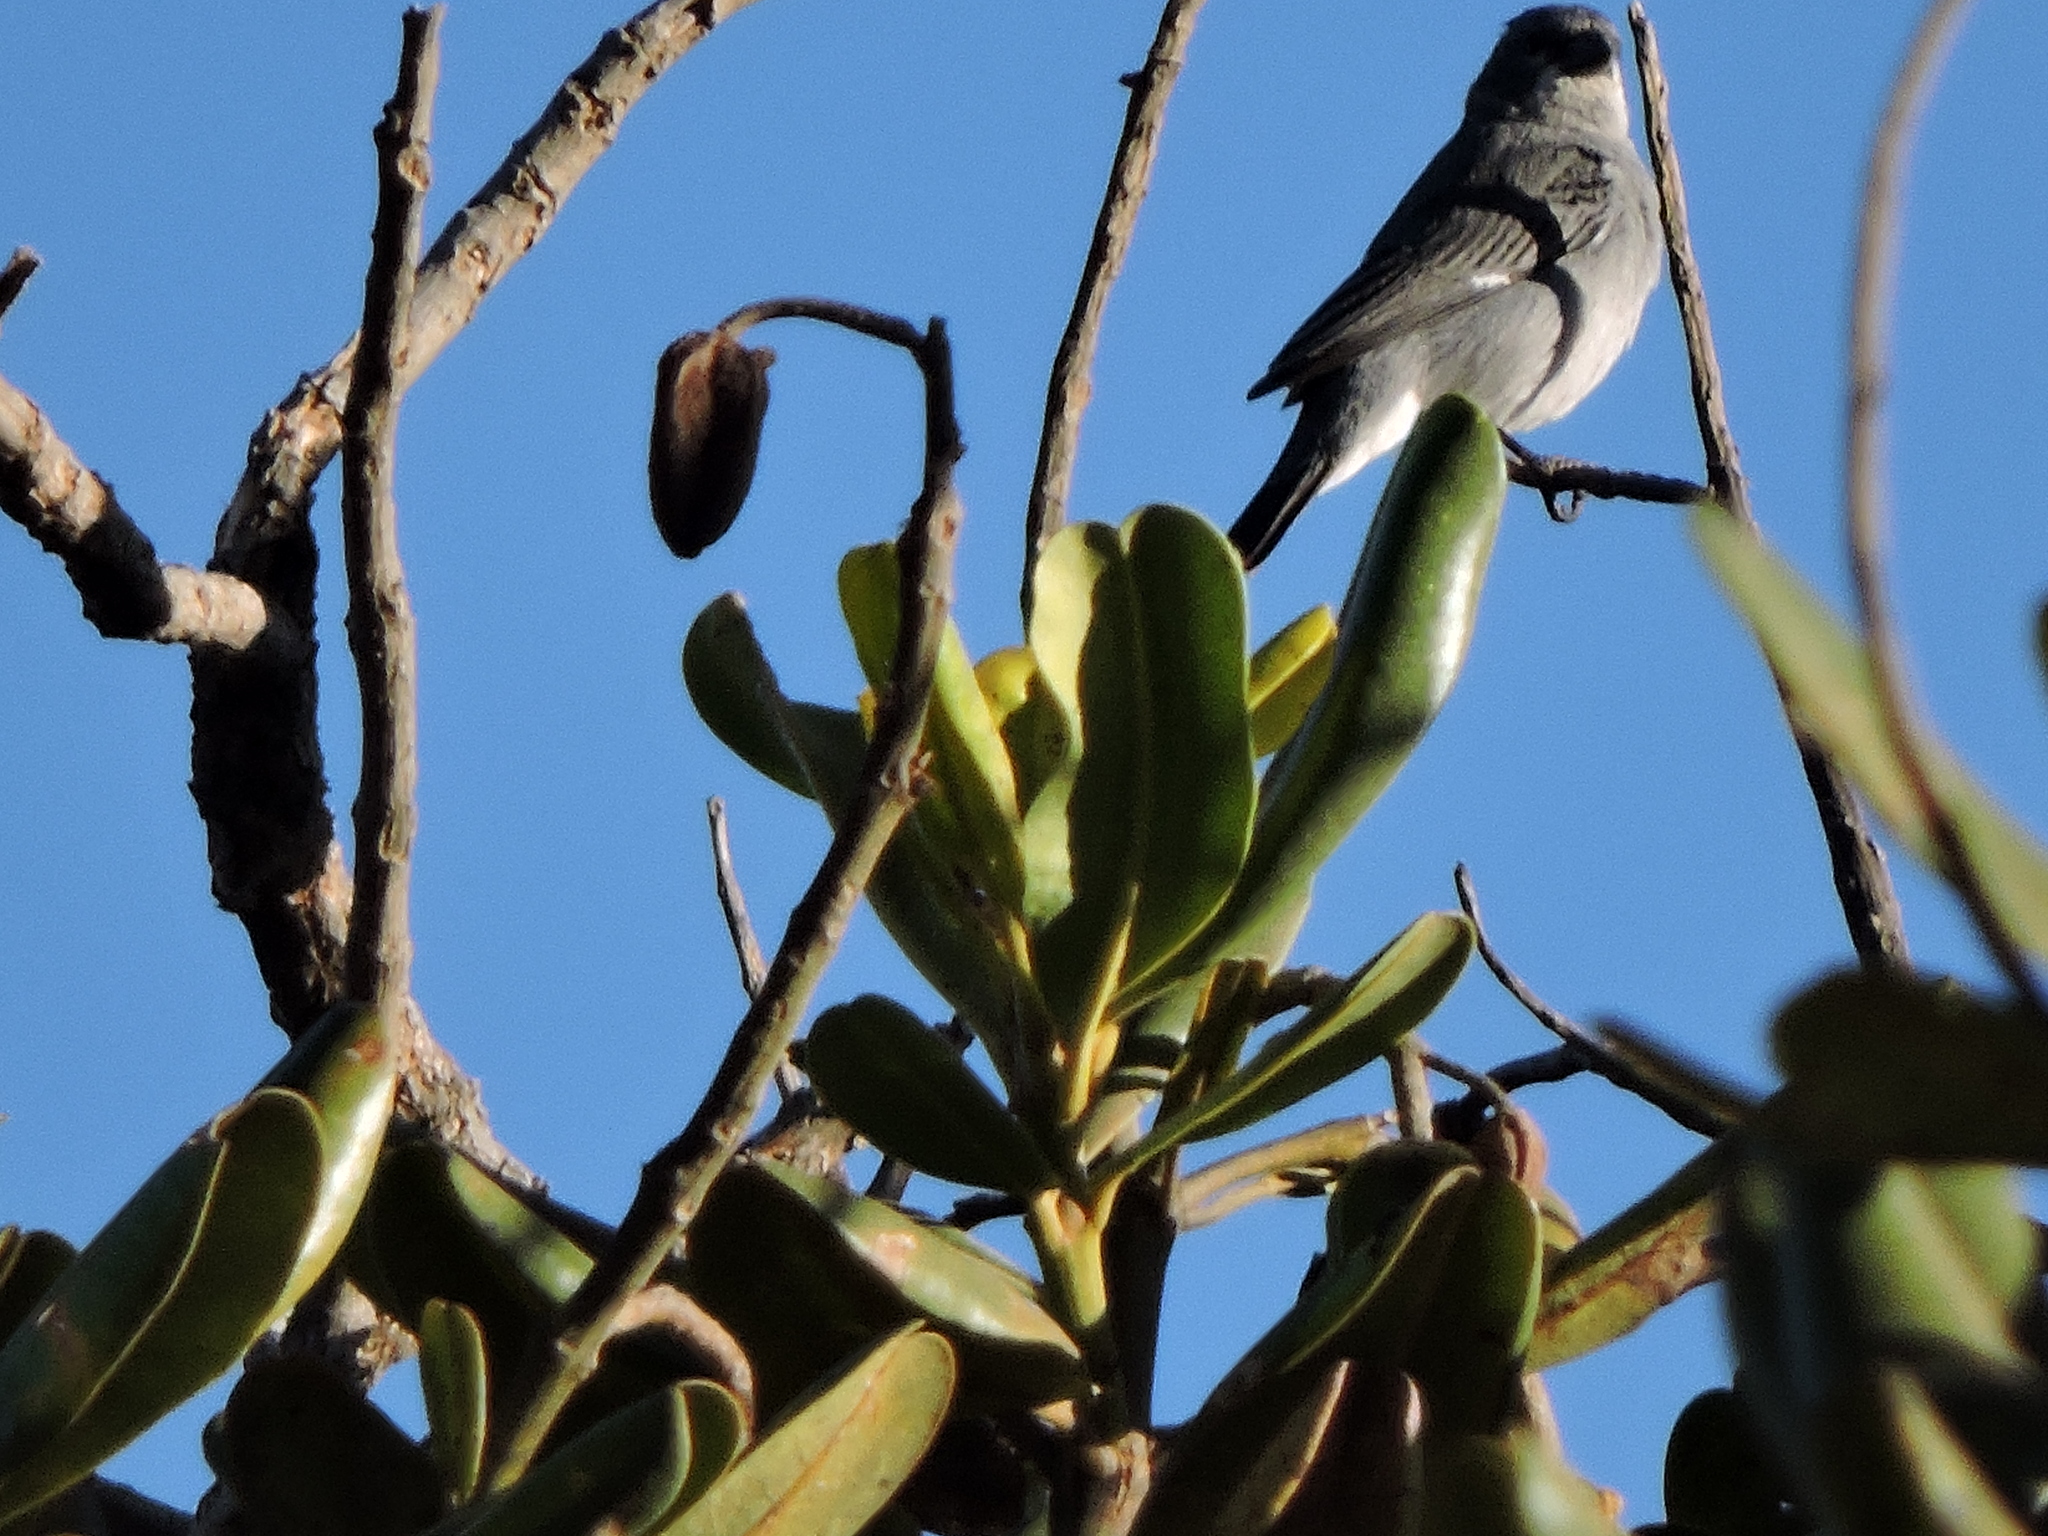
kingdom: Animalia
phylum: Chordata
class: Aves
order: Passeriformes
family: Thraupidae
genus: Sporophila
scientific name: Sporophila plumbea
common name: Plumbeous seedeater
